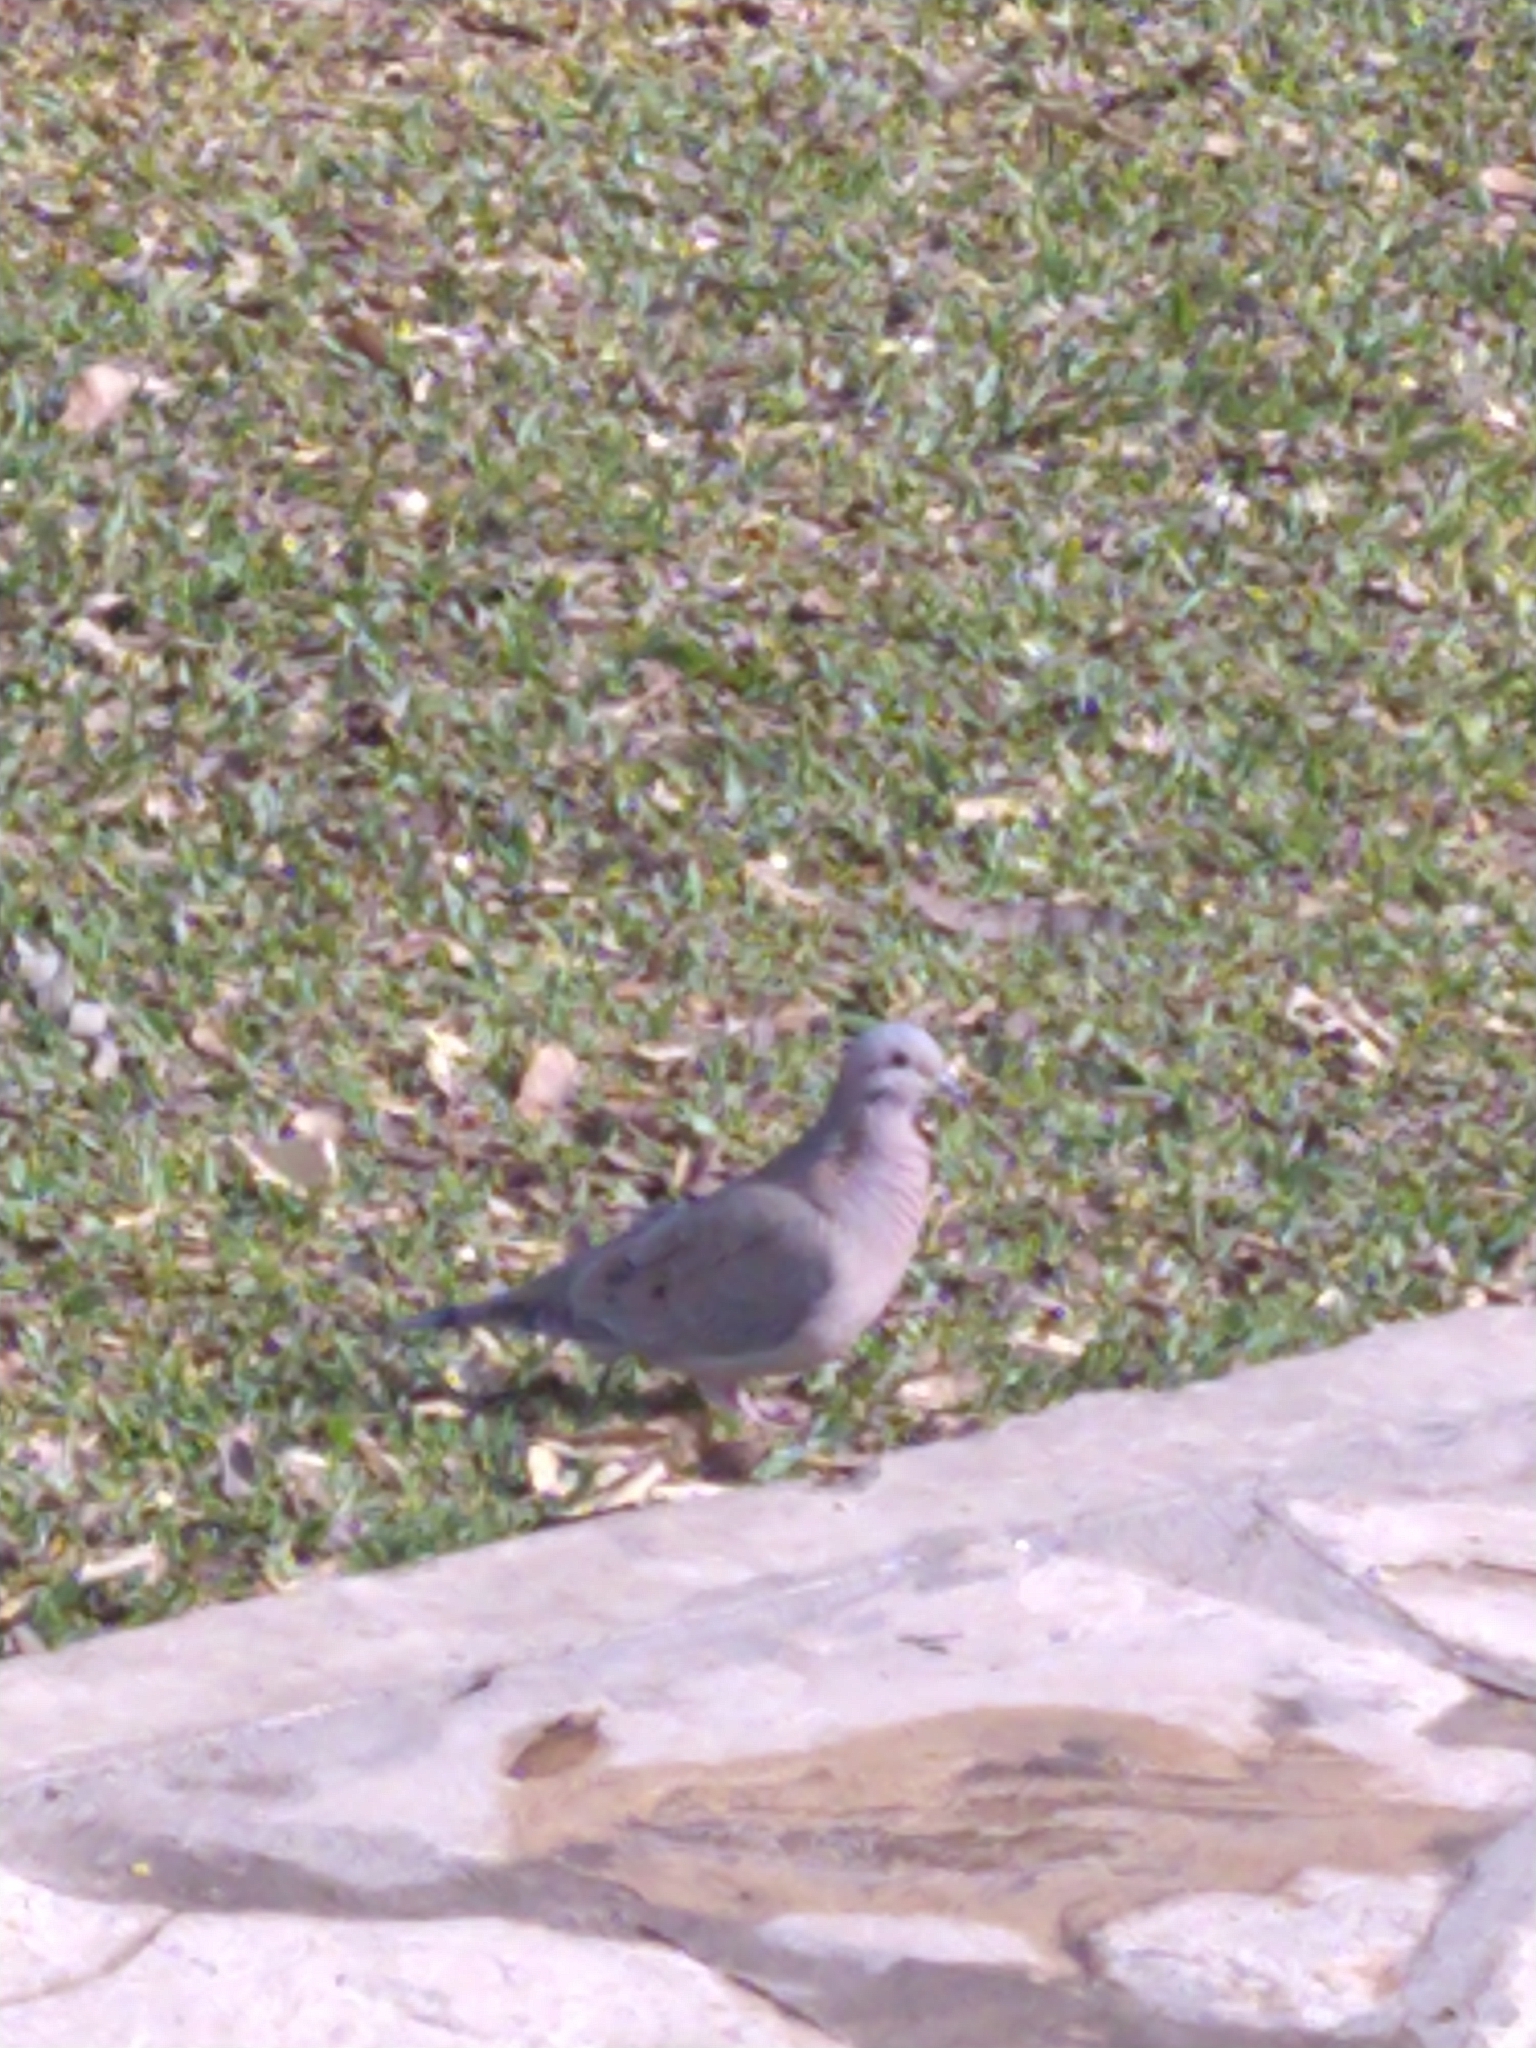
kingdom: Animalia
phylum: Chordata
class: Aves
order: Columbiformes
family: Columbidae
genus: Zenaida
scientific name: Zenaida auriculata
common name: Eared dove
